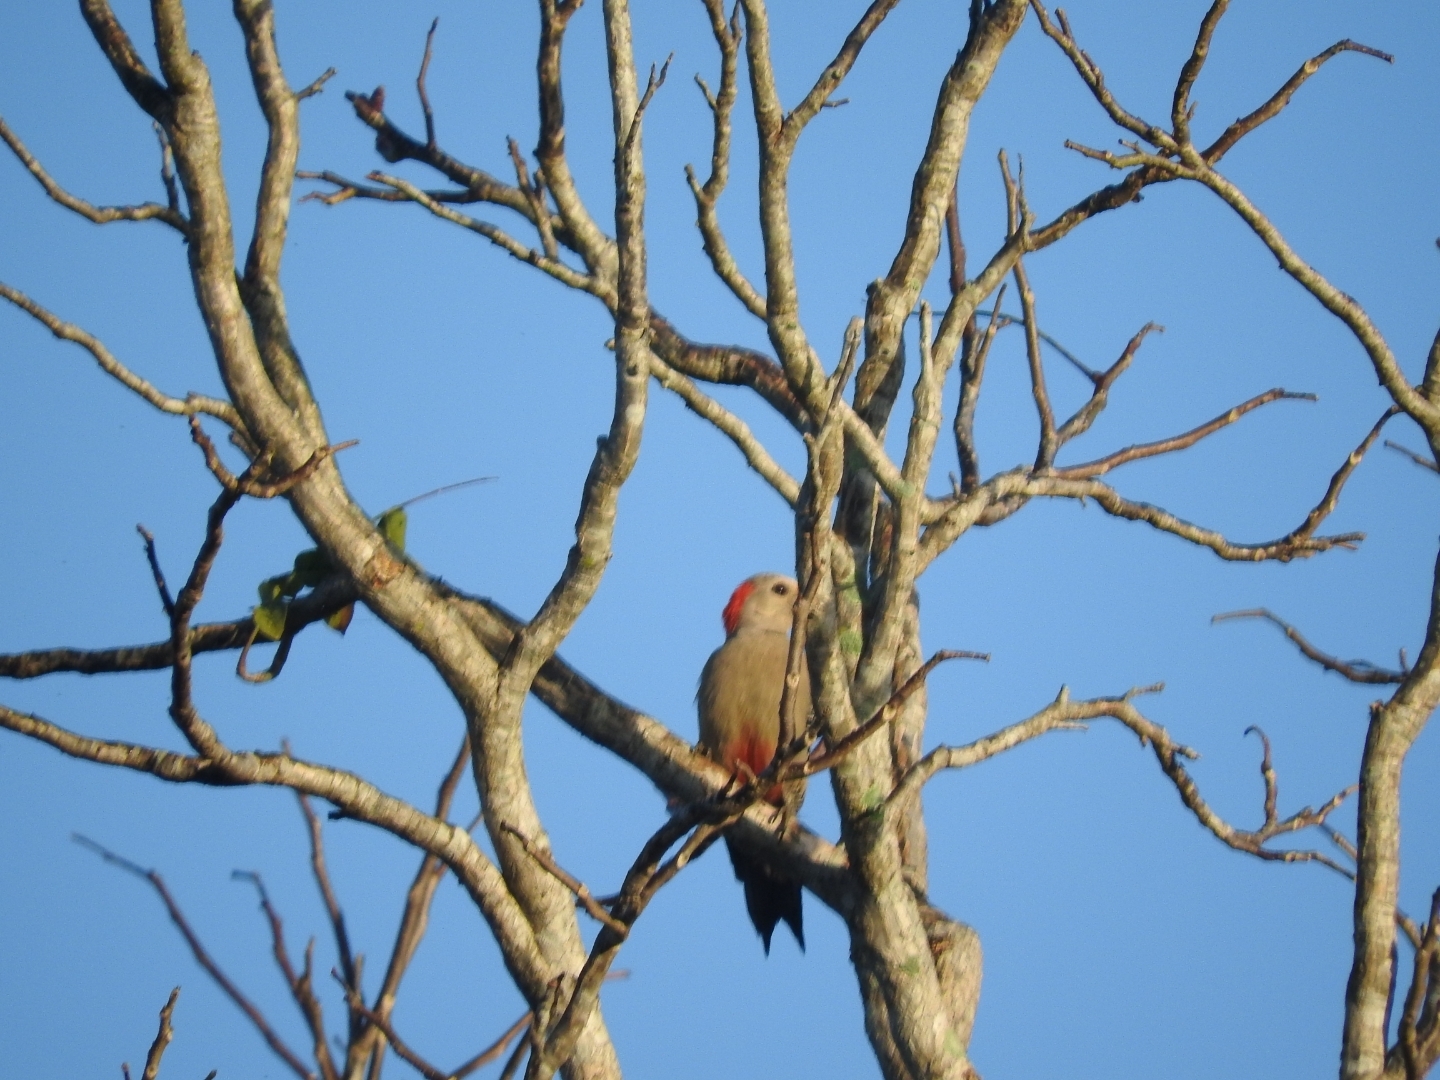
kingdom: Animalia
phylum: Chordata
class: Aves
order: Piciformes
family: Picidae
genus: Melanerpes
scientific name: Melanerpes pygmaeus
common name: Yucatan woodpecker
